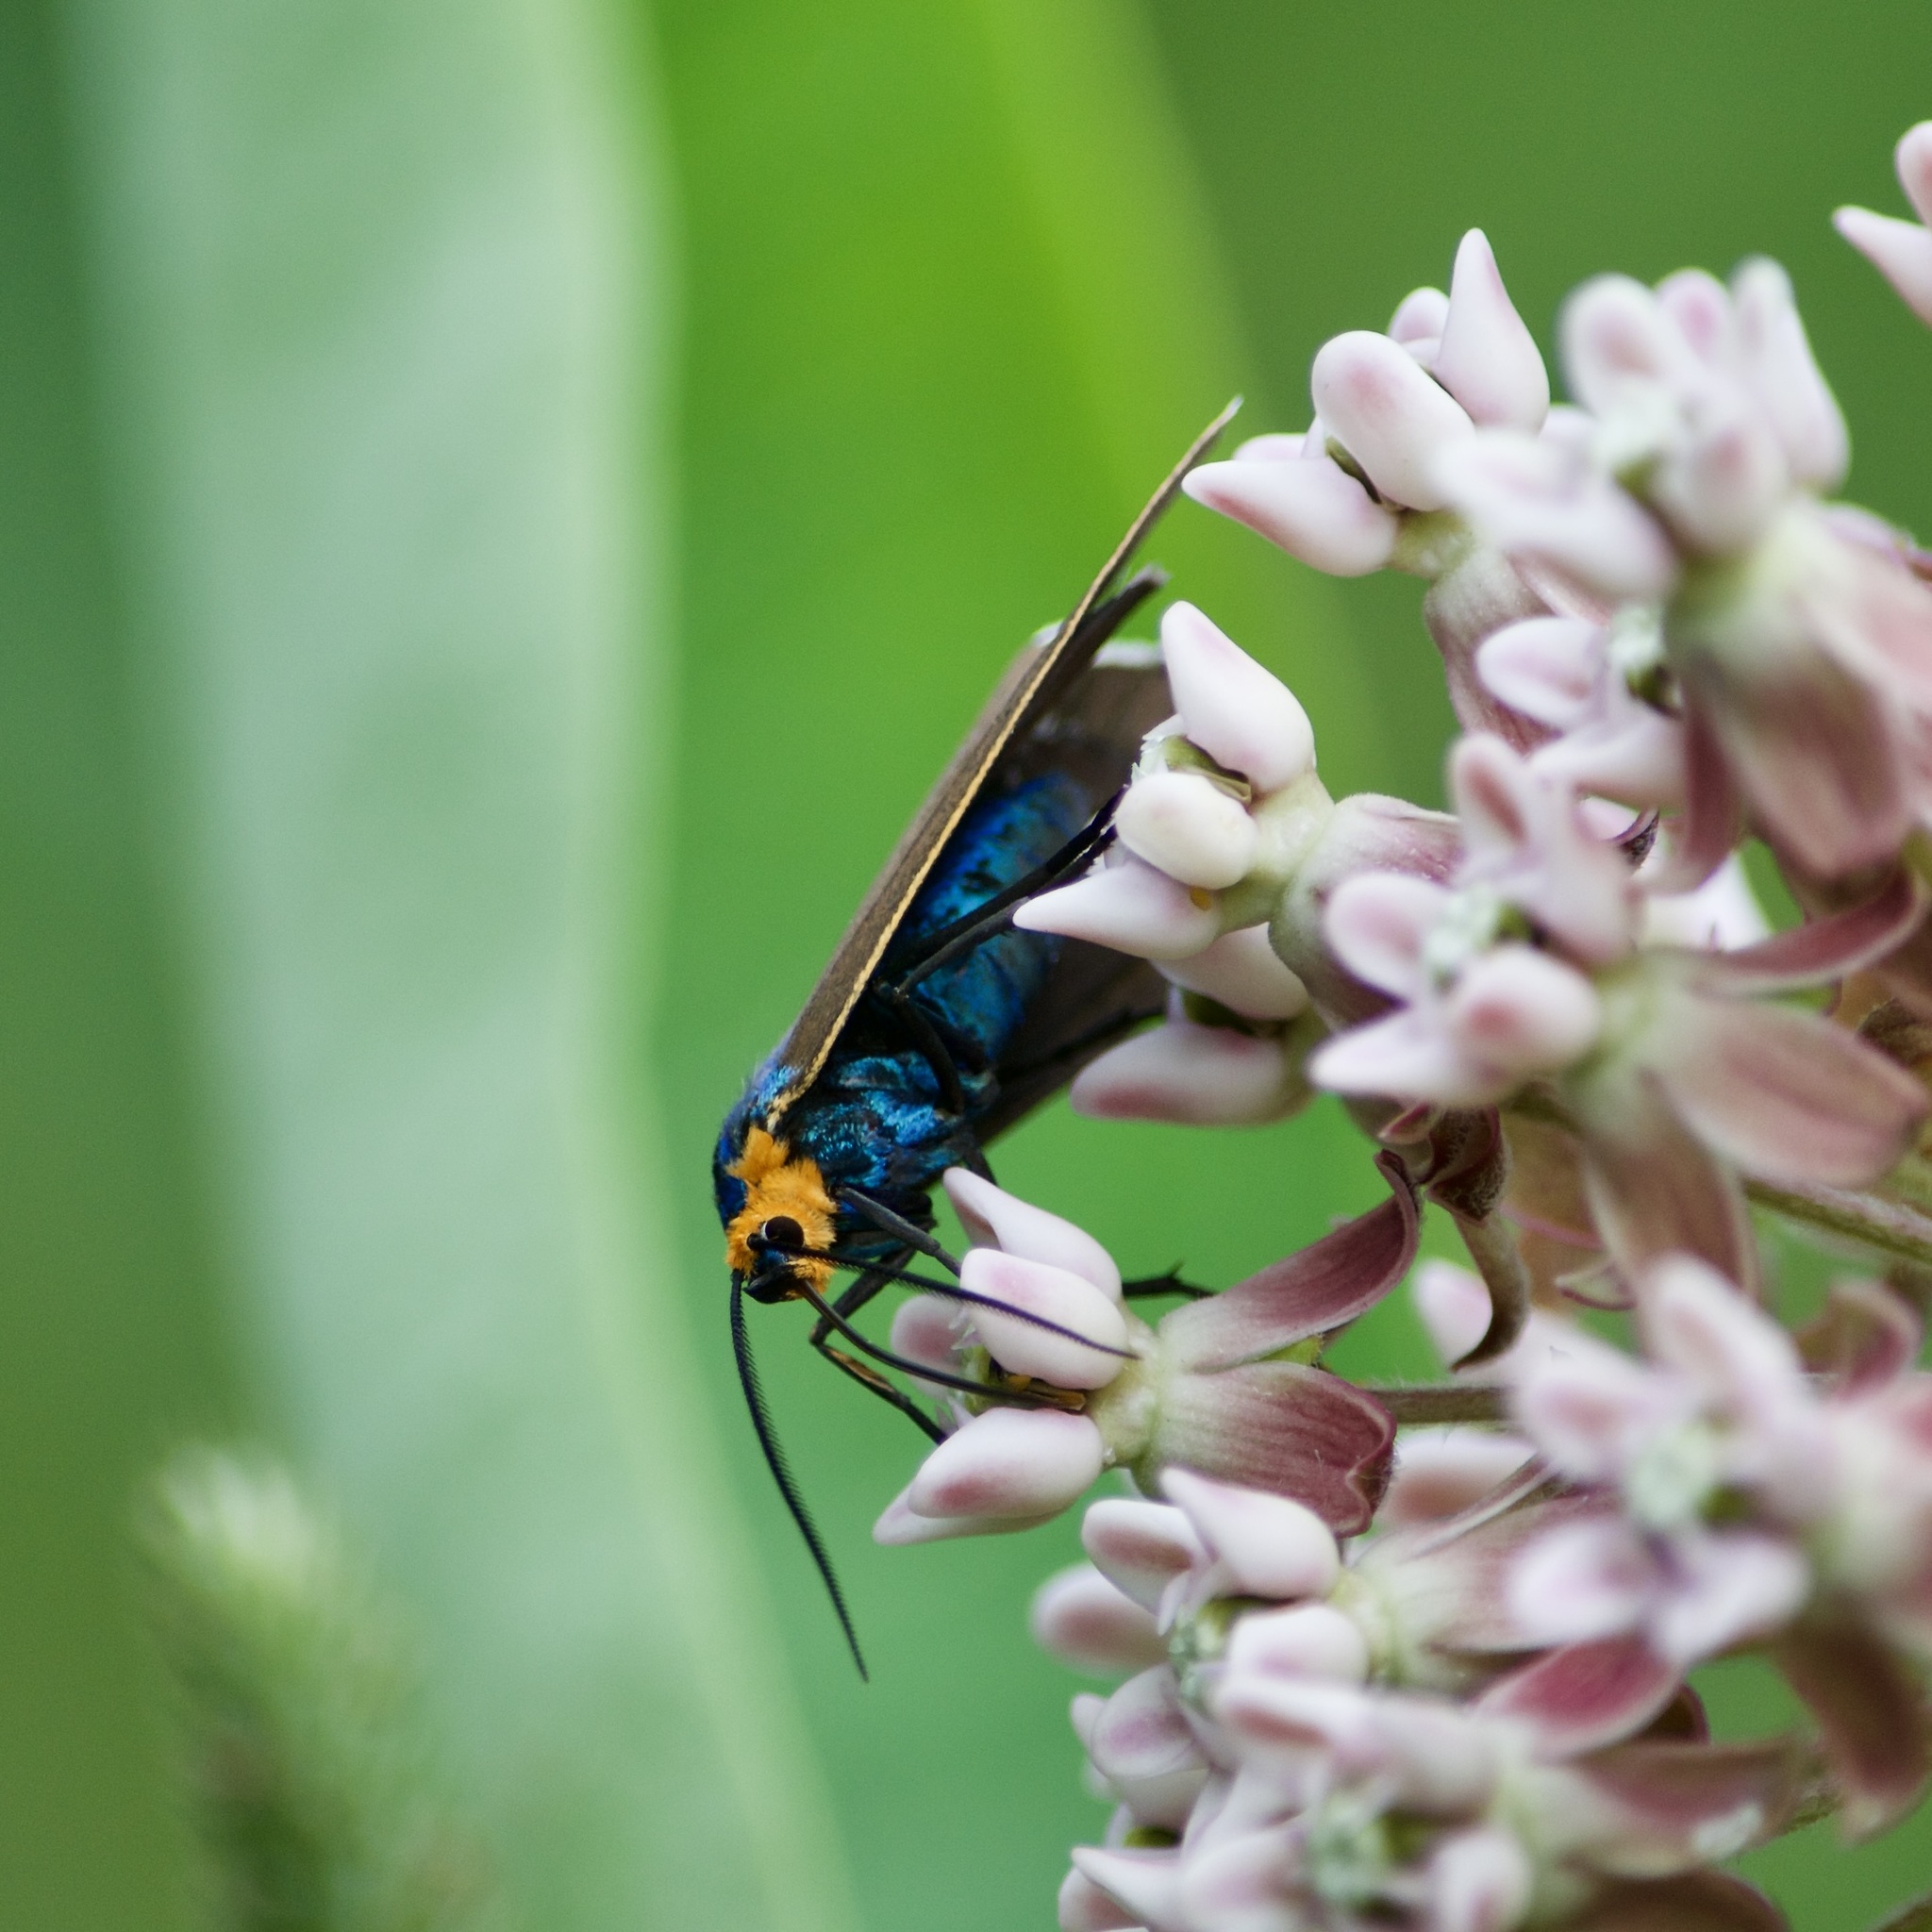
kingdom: Animalia
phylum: Arthropoda
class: Insecta
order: Lepidoptera
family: Erebidae
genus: Ctenucha
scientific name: Ctenucha virginica
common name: Virginia ctenucha moth
